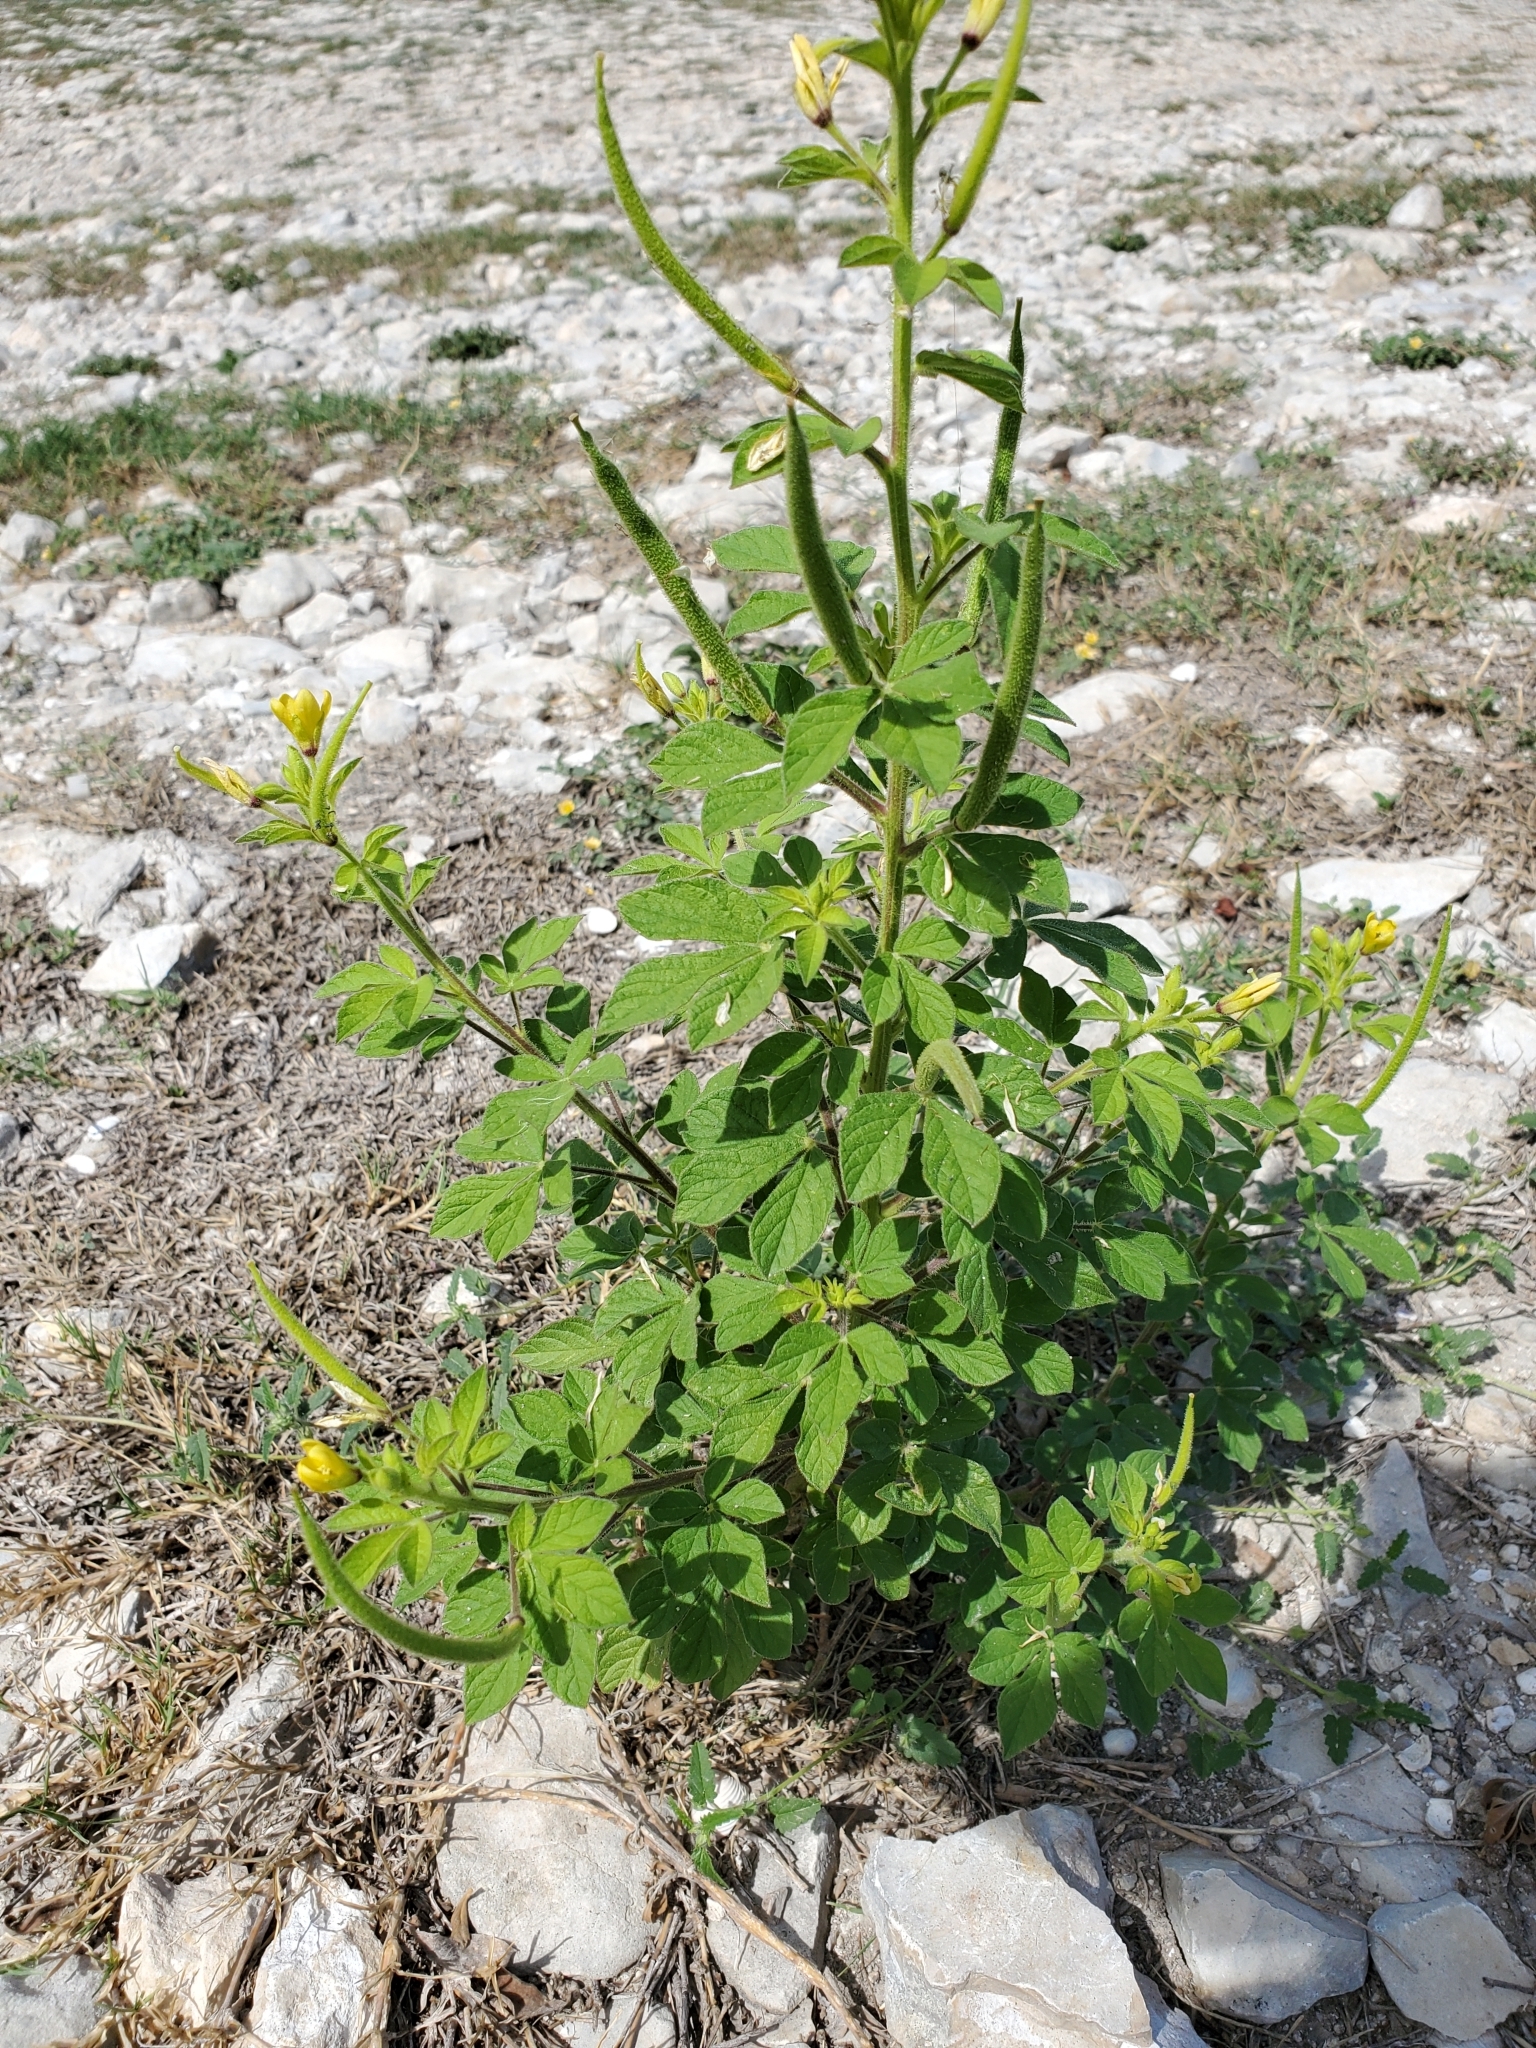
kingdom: Plantae
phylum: Tracheophyta
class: Magnoliopsida
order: Brassicales
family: Cleomaceae
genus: Arivela
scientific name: Arivela viscosa
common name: Asian spiderflower
